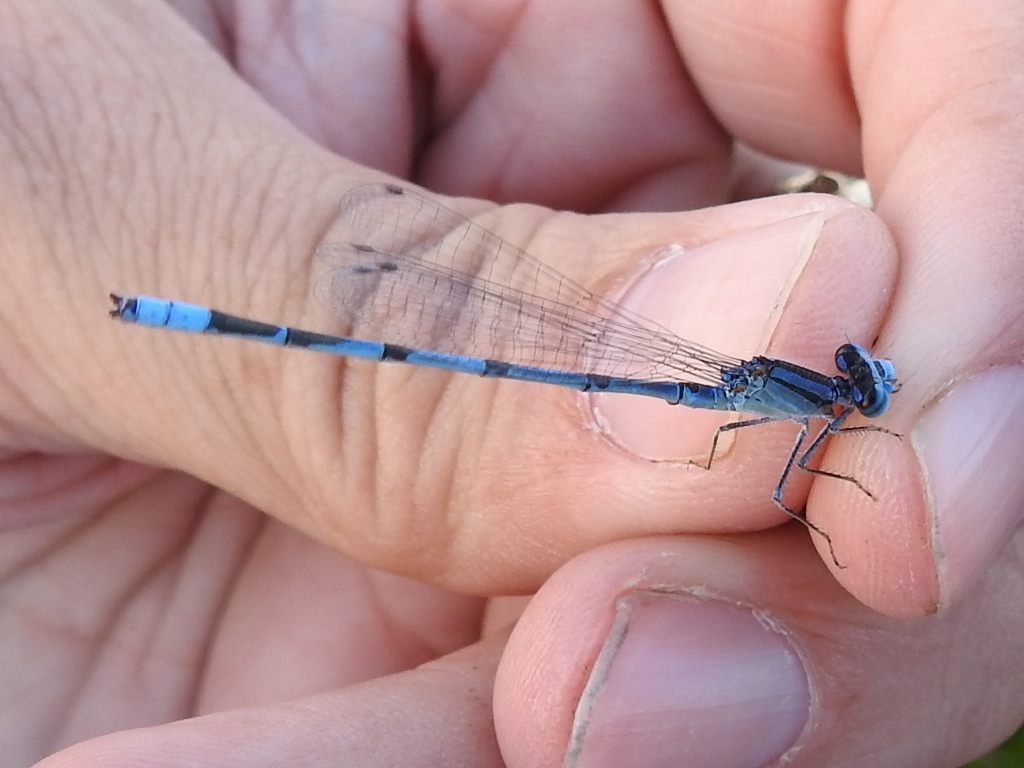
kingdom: Animalia
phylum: Arthropoda
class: Insecta
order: Odonata
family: Coenagrionidae
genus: Enallagma
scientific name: Enallagma civile
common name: Damselfly
